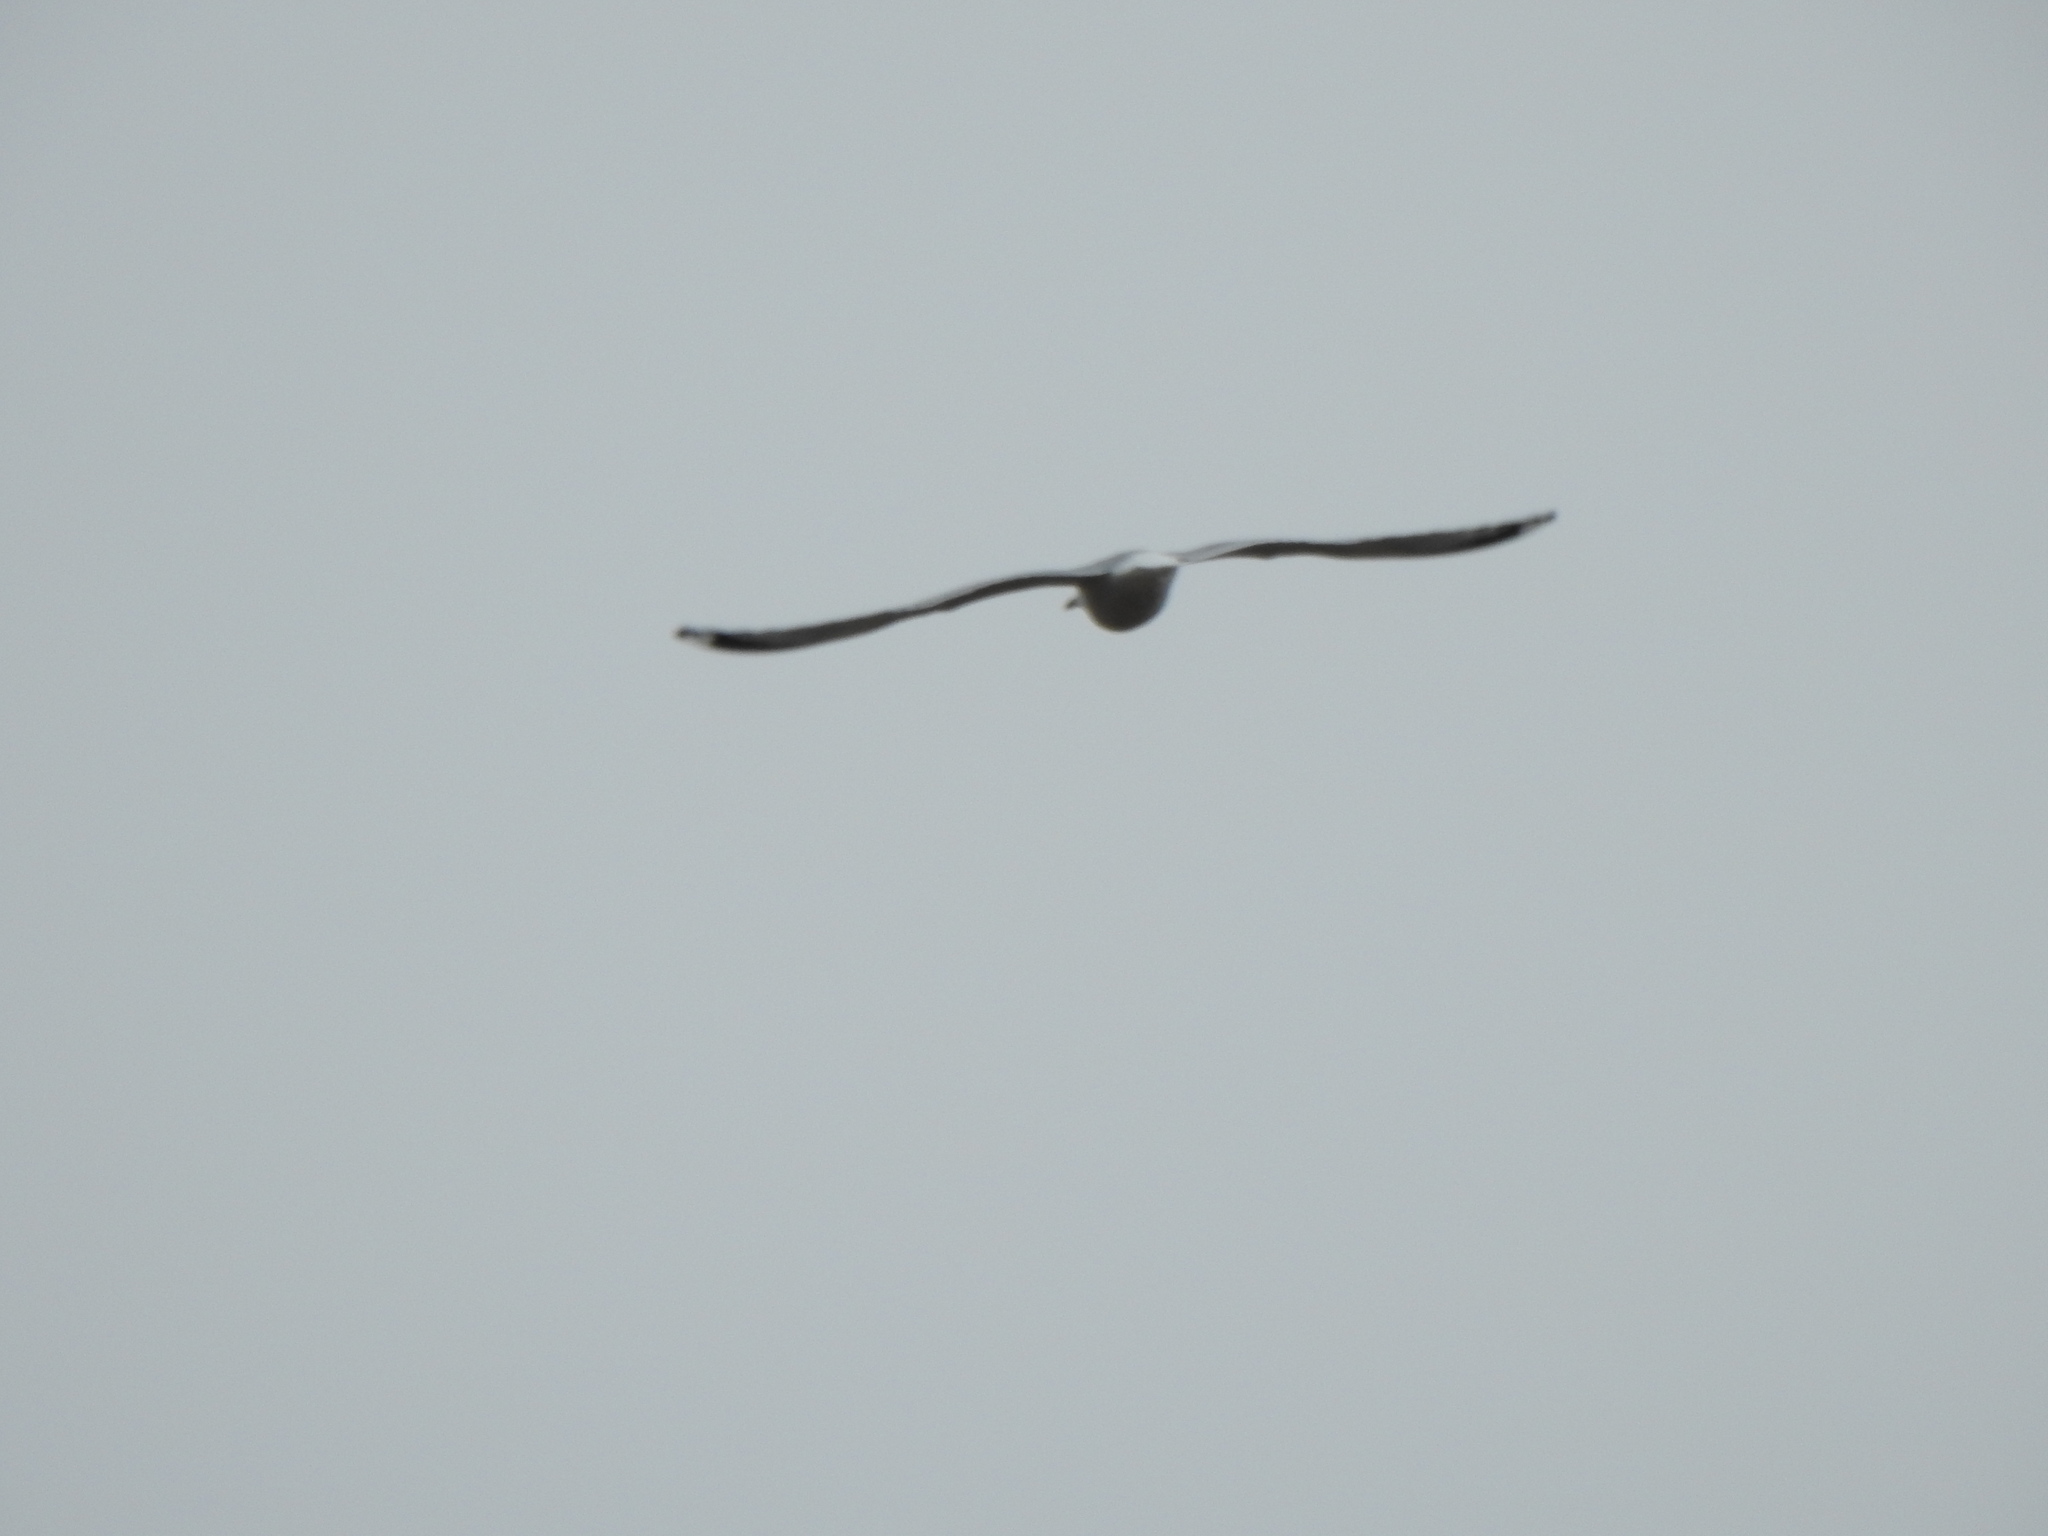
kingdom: Animalia
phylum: Chordata
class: Aves
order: Charadriiformes
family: Laridae
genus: Larus
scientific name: Larus delawarensis
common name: Ring-billed gull
